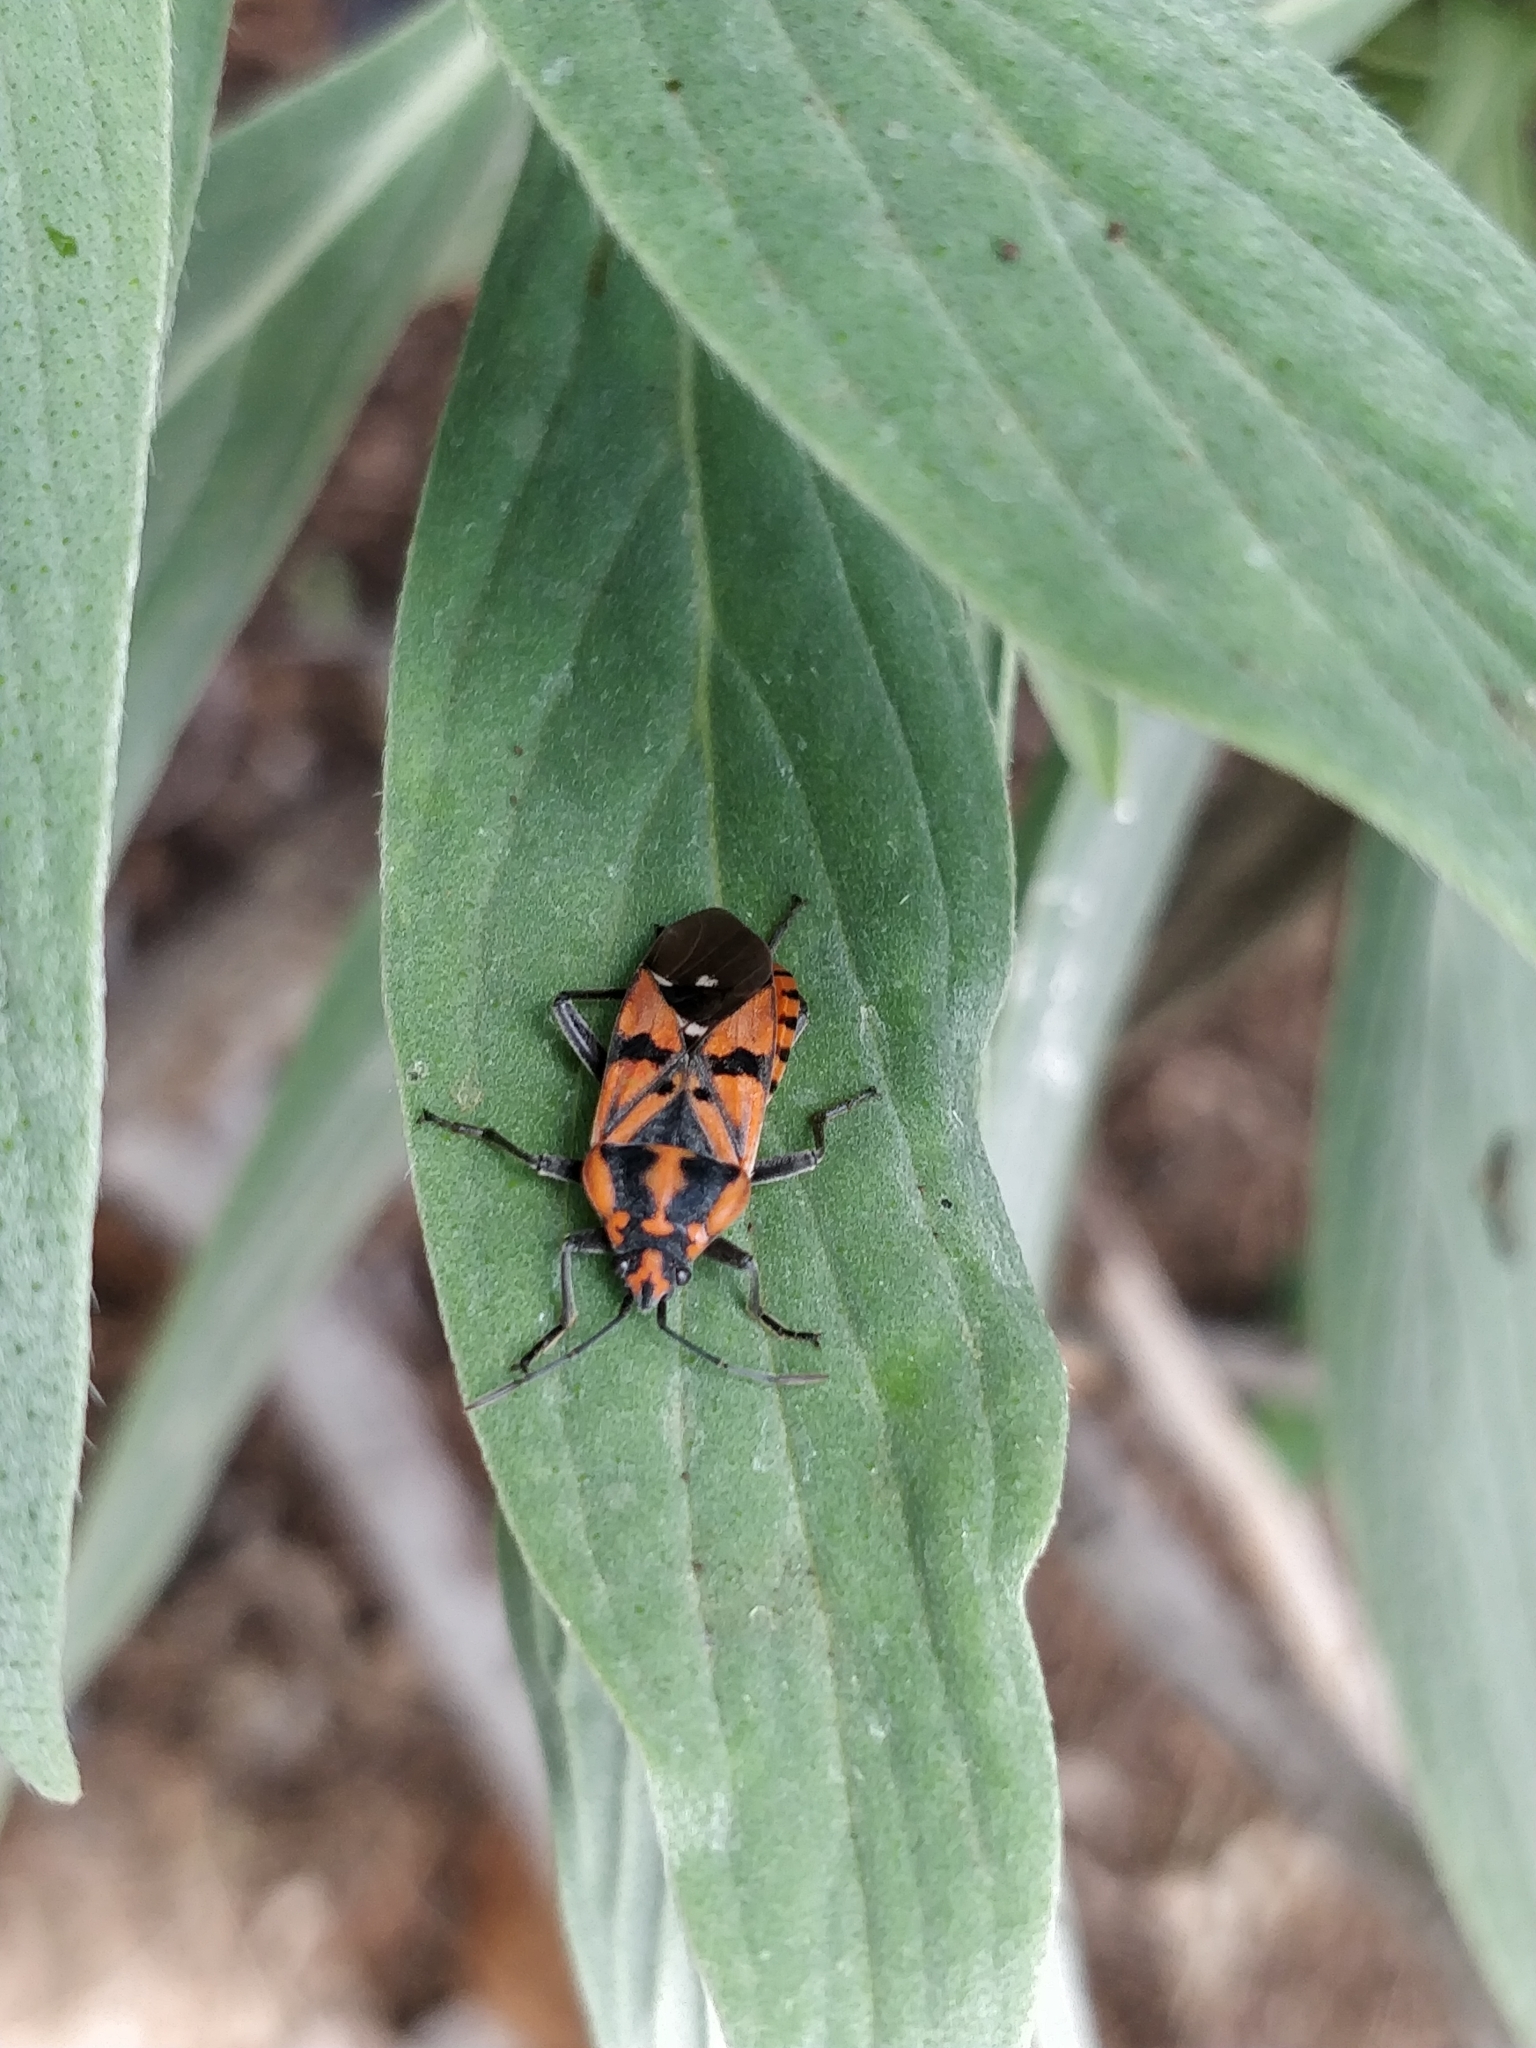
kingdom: Animalia
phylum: Arthropoda
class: Insecta
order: Hemiptera
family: Lygaeidae
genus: Spilostethus
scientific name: Spilostethus pandurus
